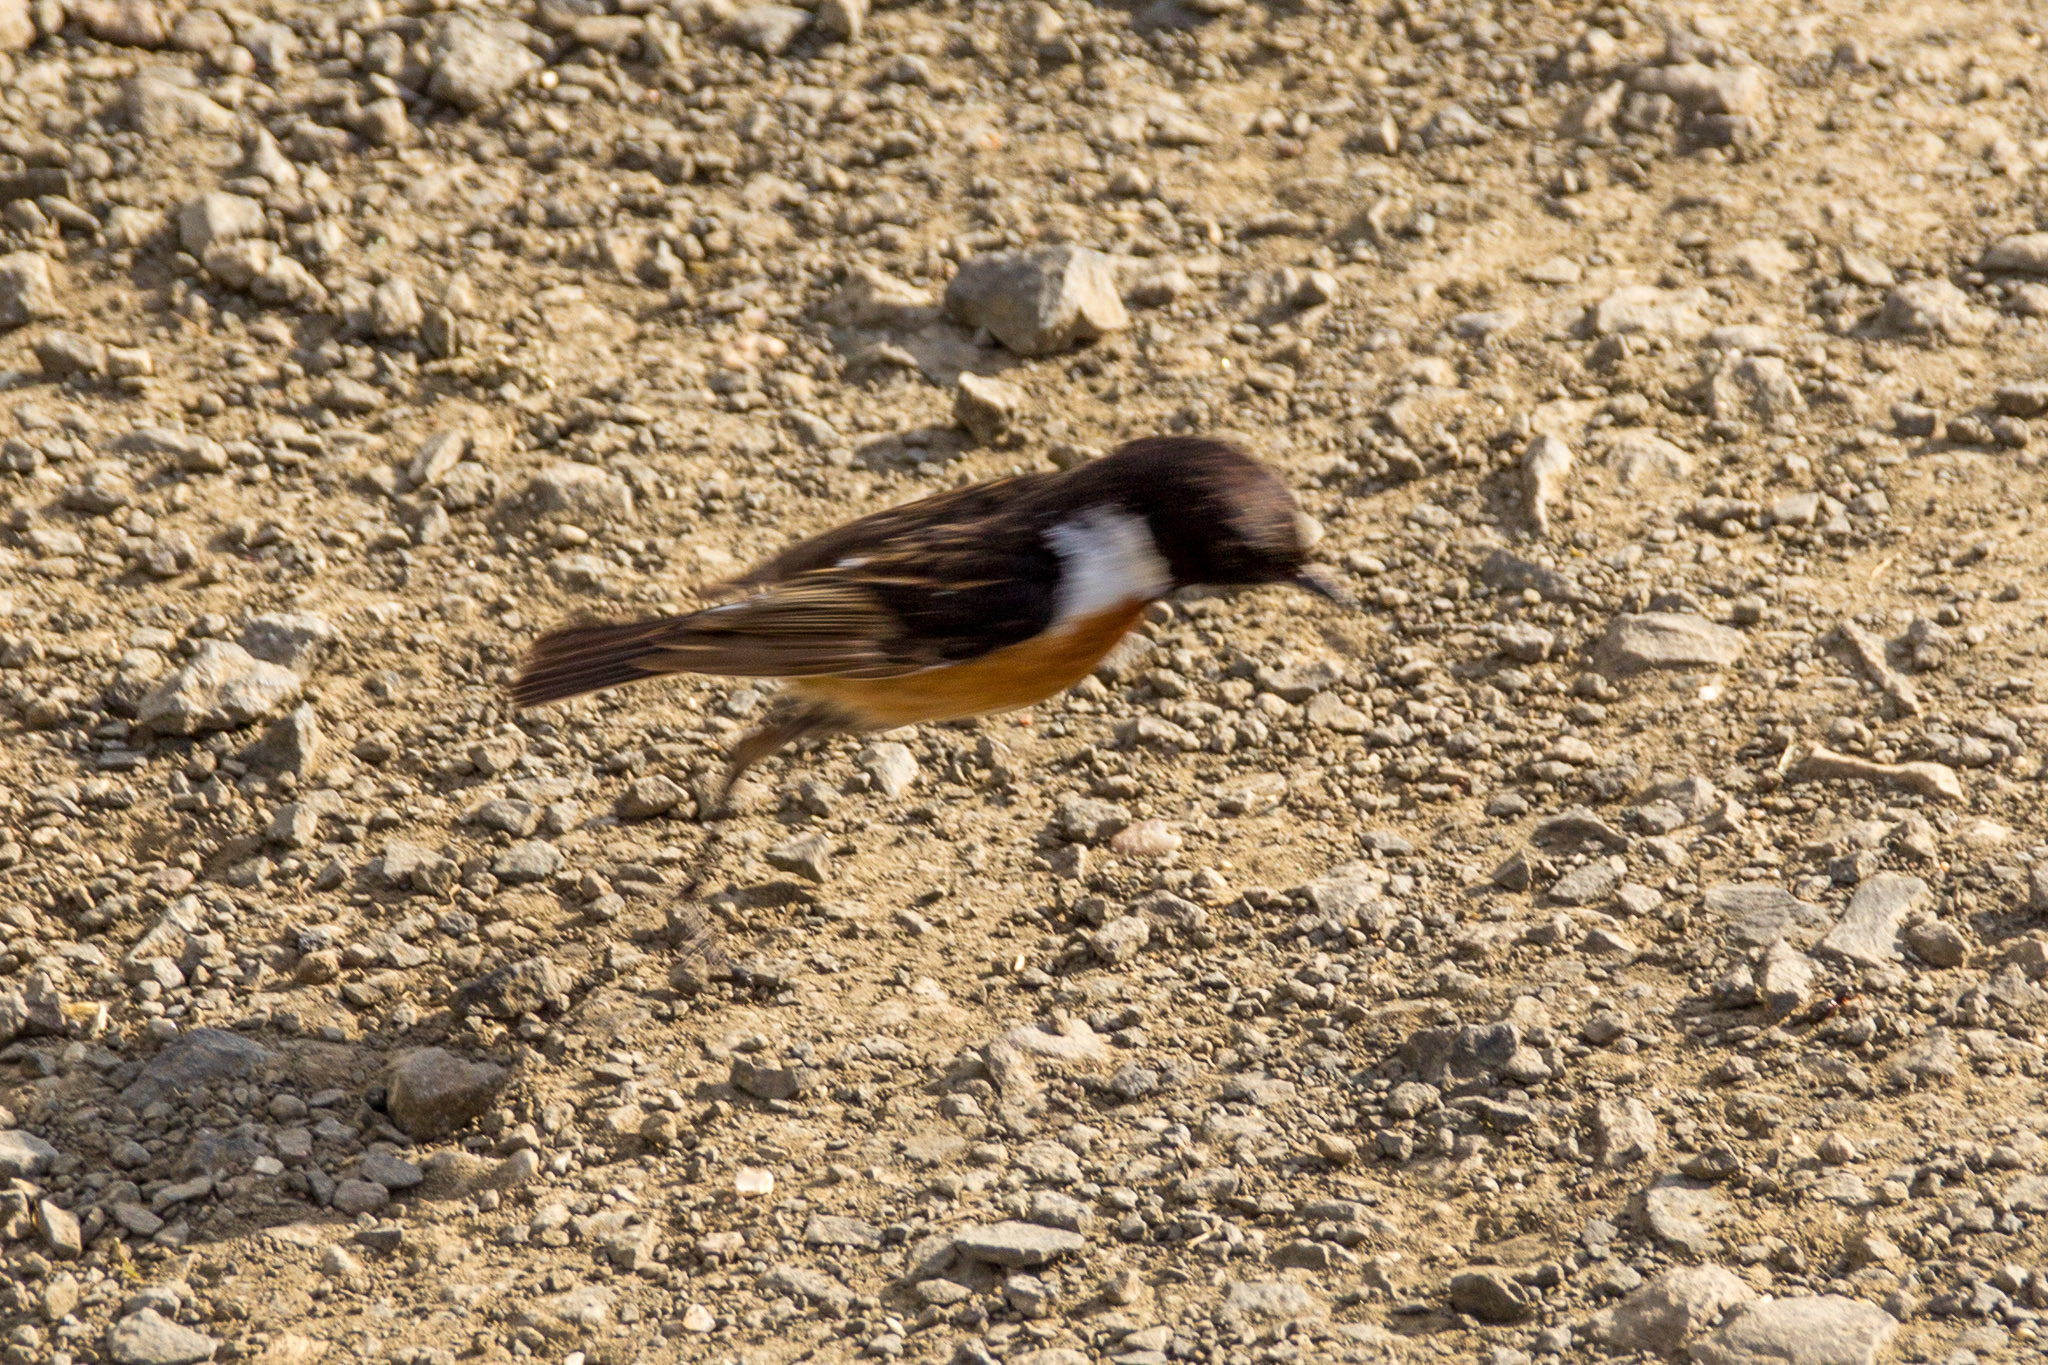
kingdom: Animalia
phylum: Chordata
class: Aves
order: Passeriformes
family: Muscicapidae
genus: Saxicola
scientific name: Saxicola rubicola
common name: European stonechat
